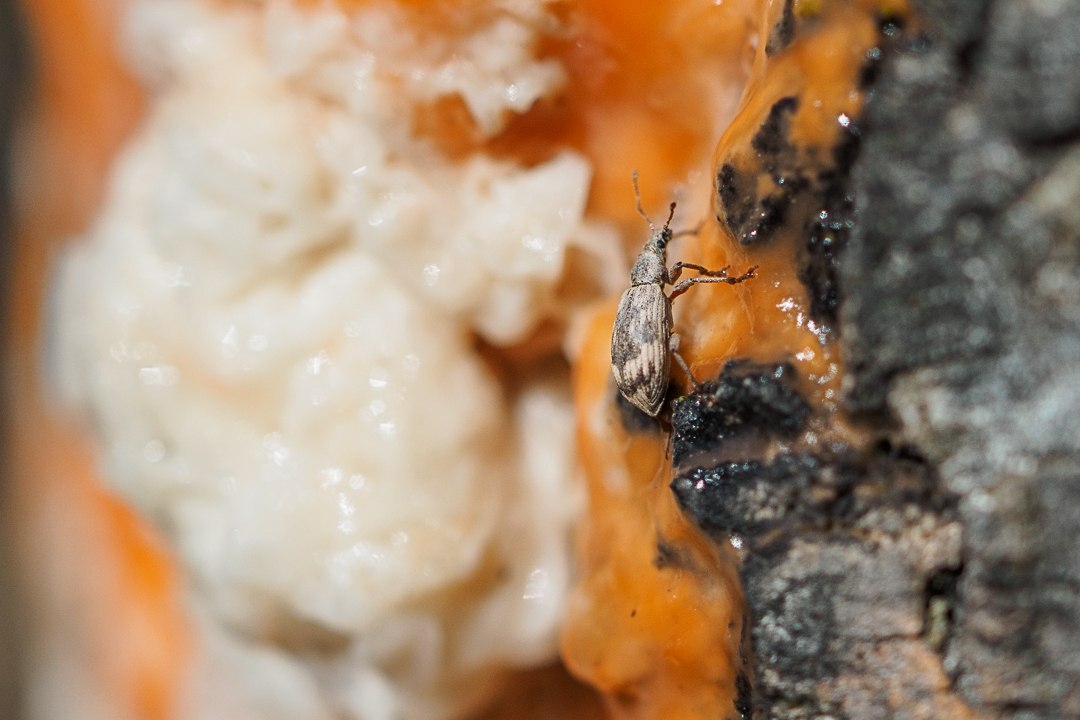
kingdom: Animalia
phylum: Arthropoda
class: Insecta
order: Coleoptera
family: Curculionidae
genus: Polydrusus
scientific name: Polydrusus tereticollis
